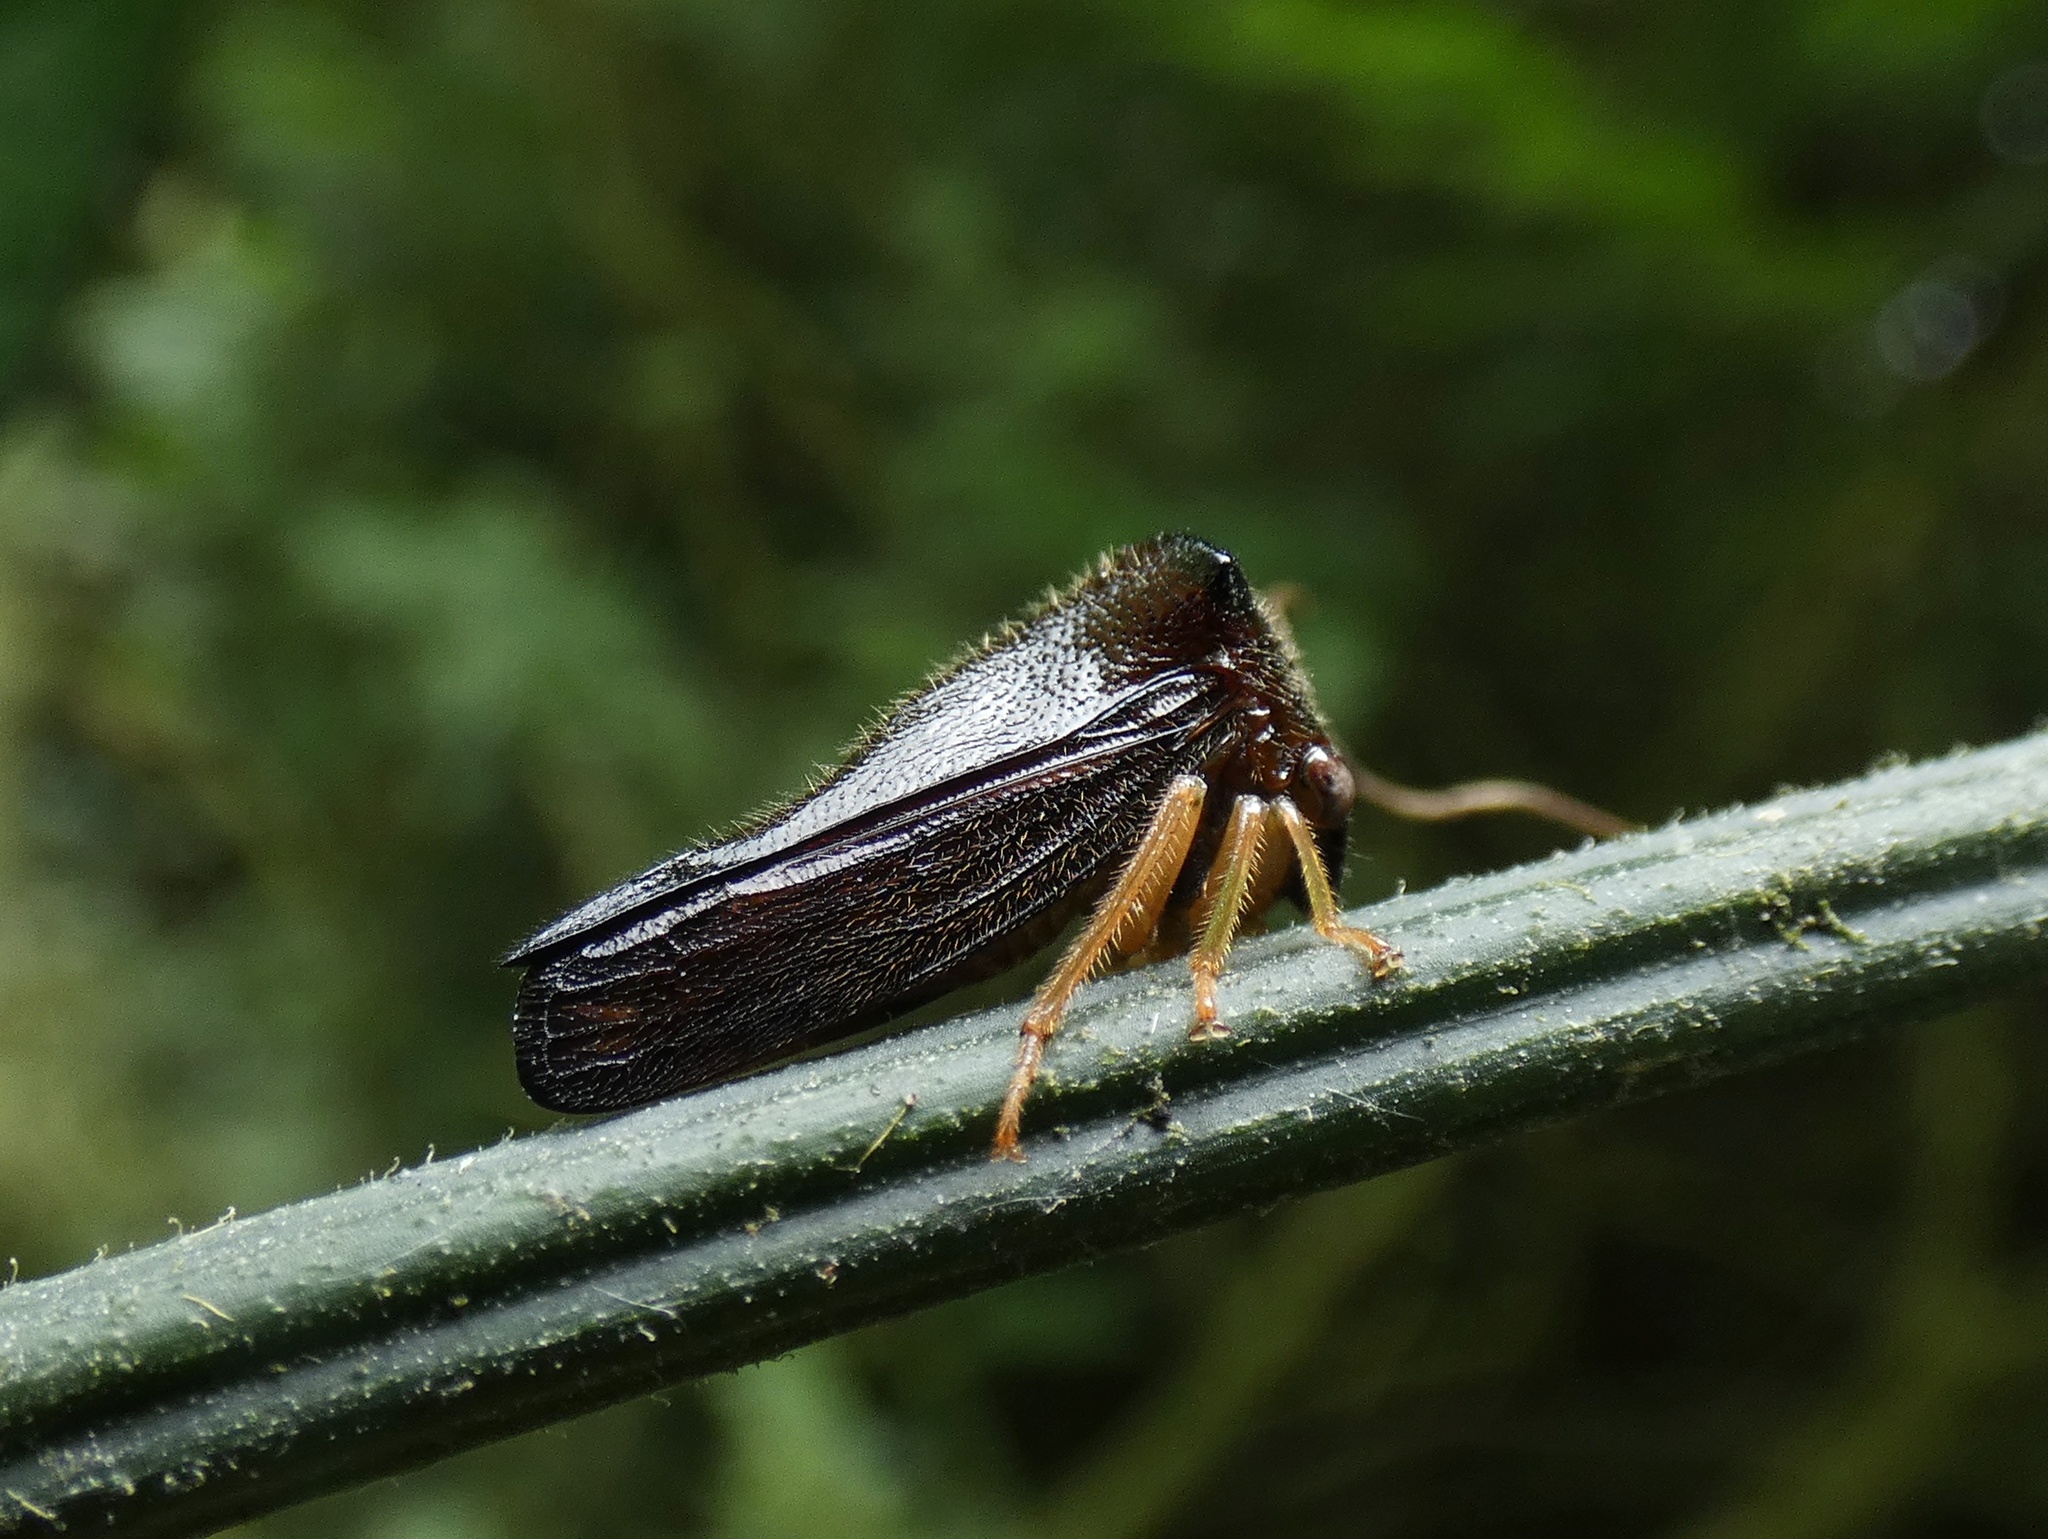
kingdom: Animalia
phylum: Arthropoda
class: Insecta
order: Hemiptera
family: Membracidae
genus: Hyphinoe
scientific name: Hyphinoe asphaltina
